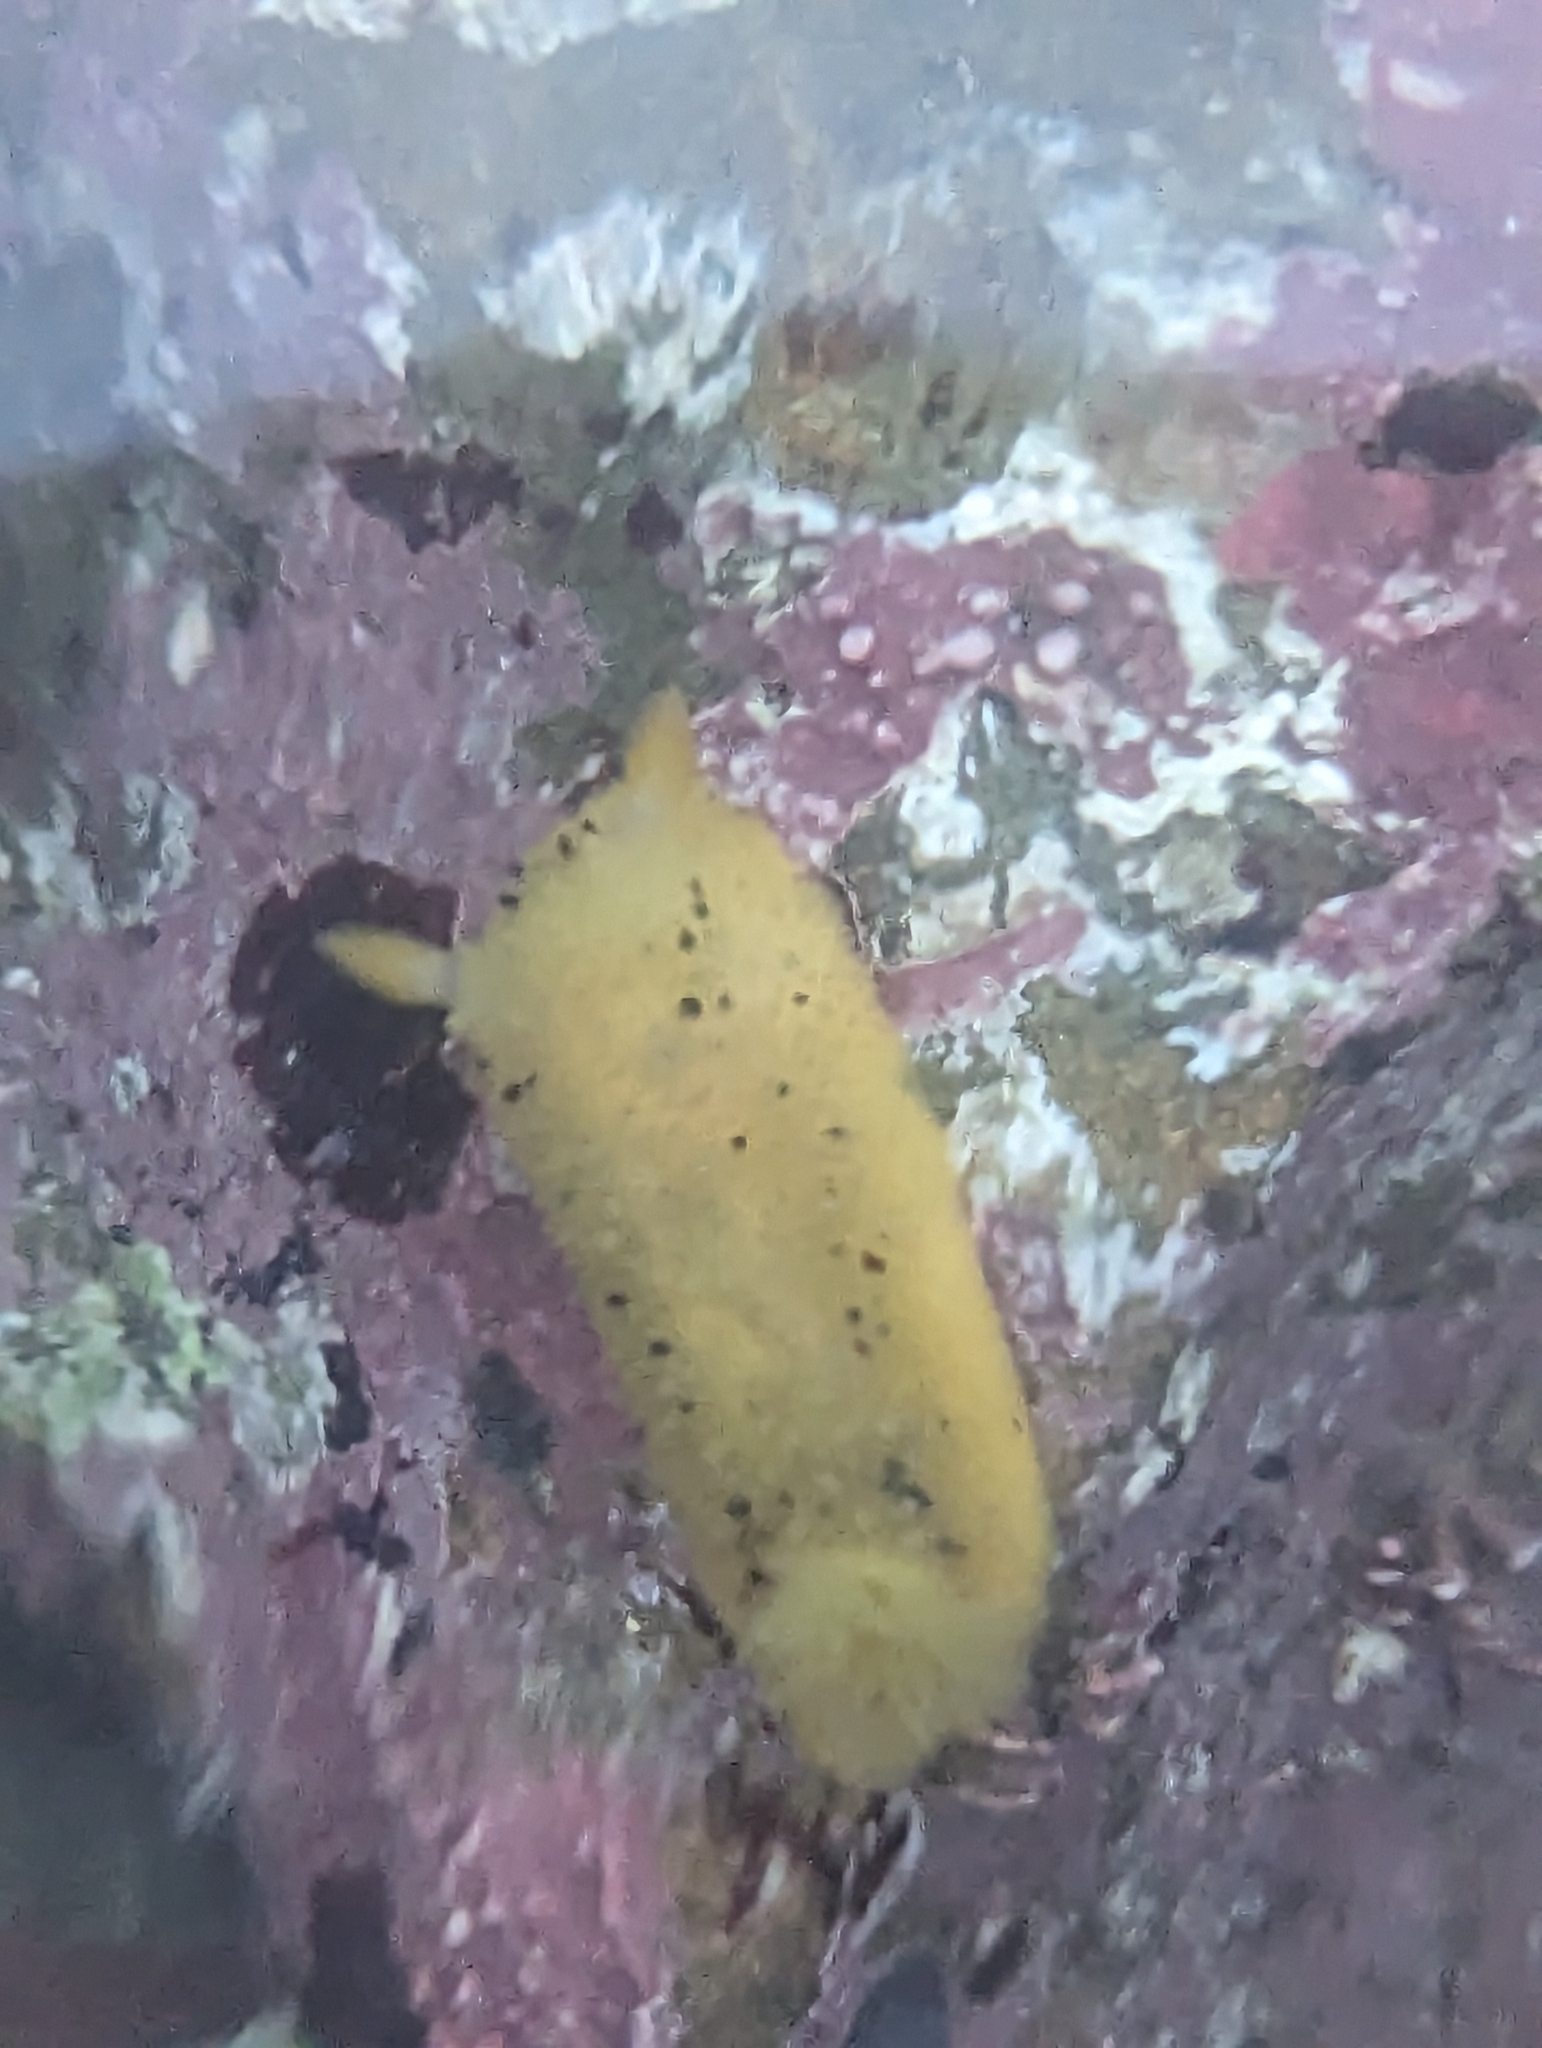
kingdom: Animalia
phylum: Mollusca
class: Gastropoda
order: Nudibranchia
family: Dorididae
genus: Doris
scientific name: Doris montereyensis
